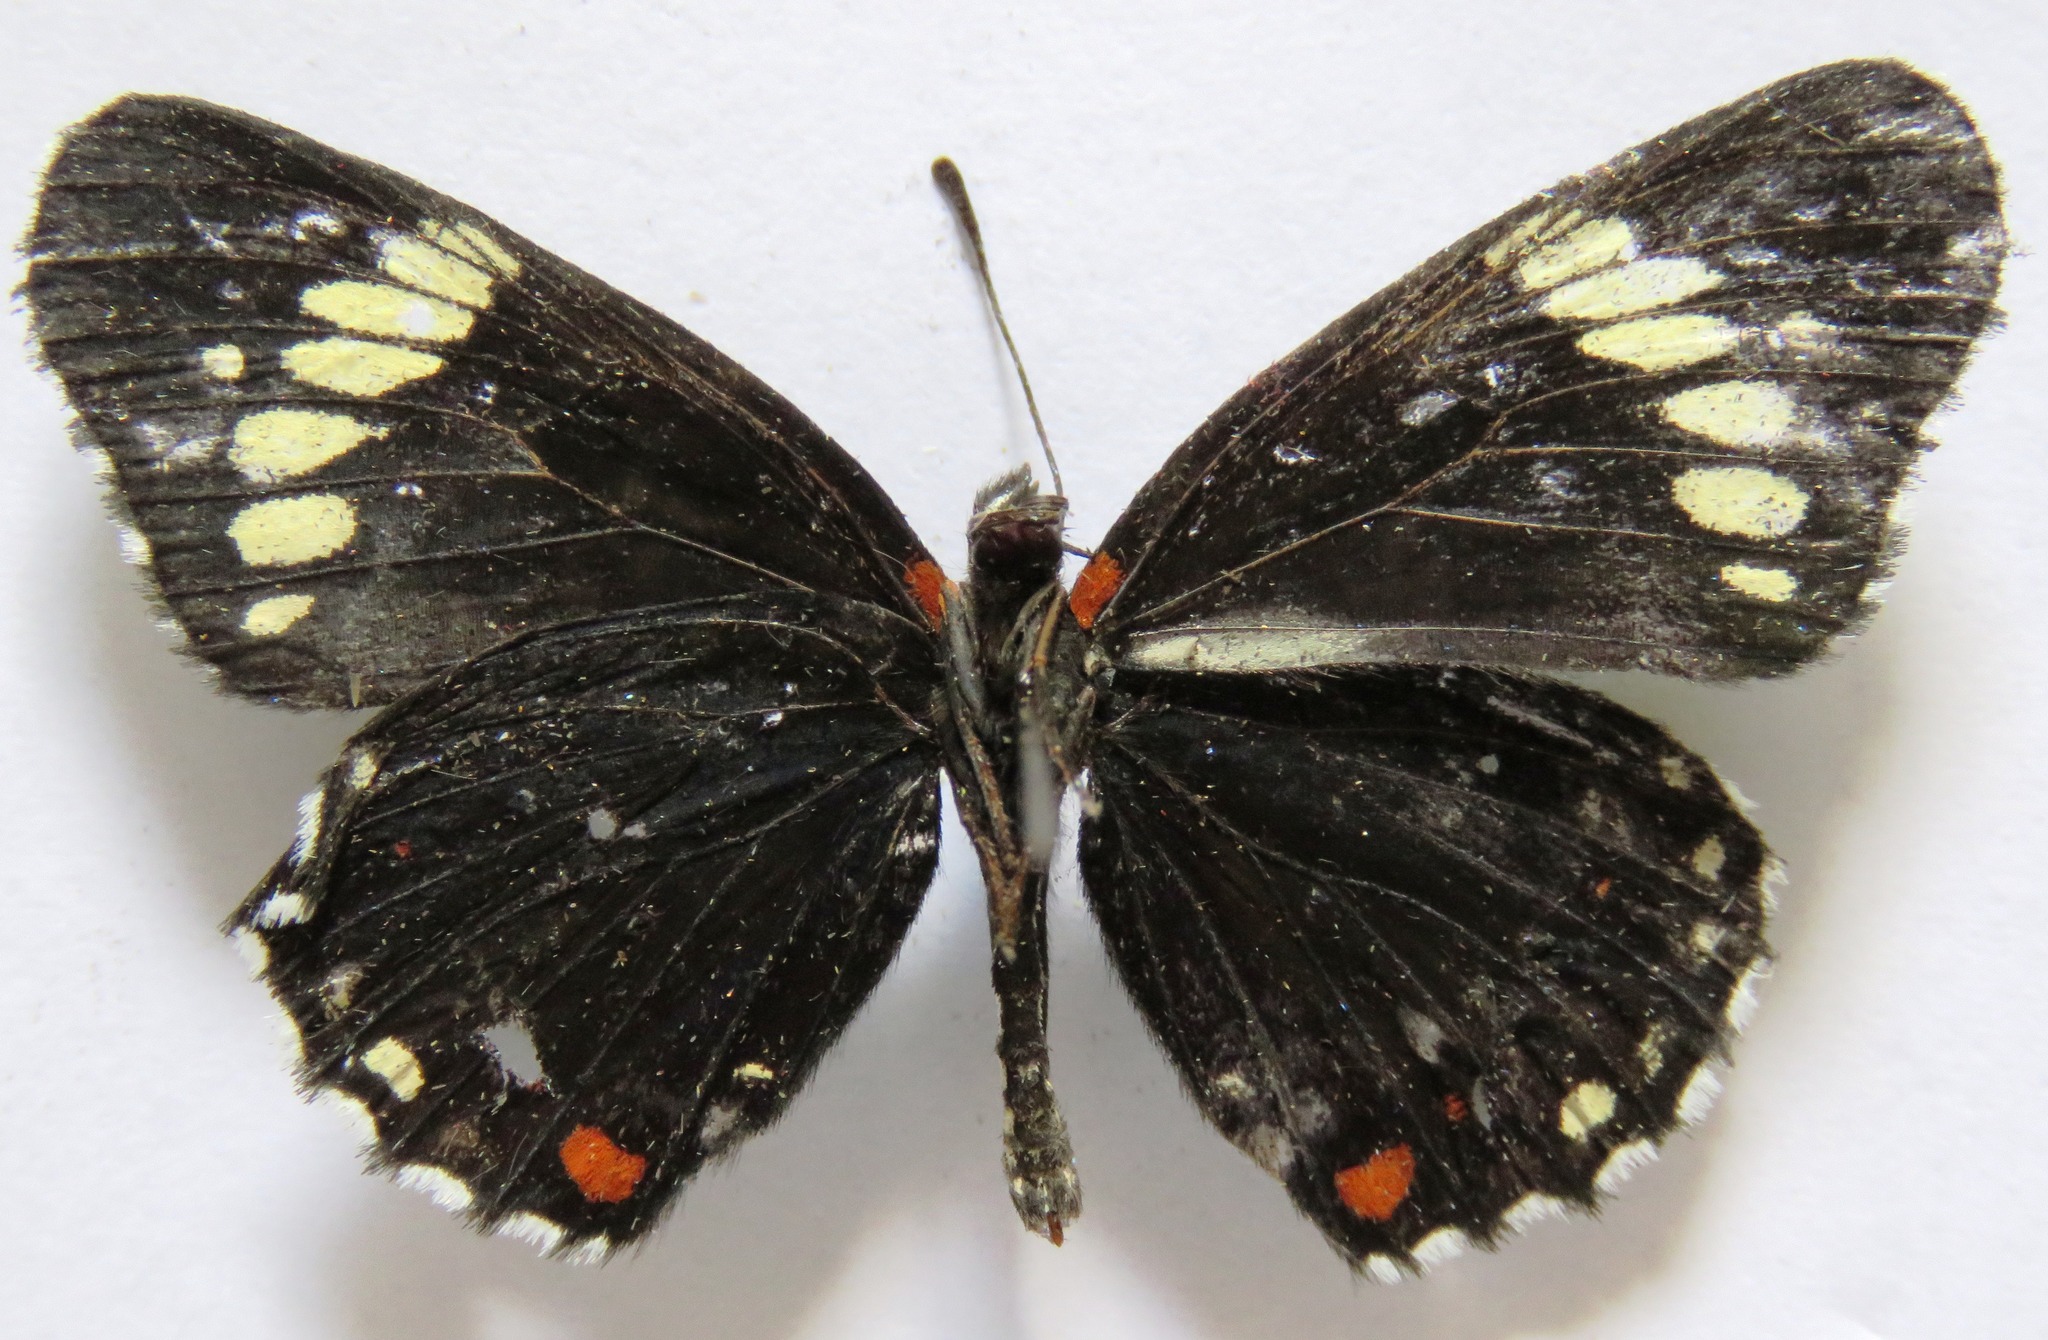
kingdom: Animalia
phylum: Arthropoda
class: Insecta
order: Lepidoptera
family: Nymphalidae
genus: Chlosyne
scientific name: Chlosyne melanarge
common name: Cream-banded checkerspot
